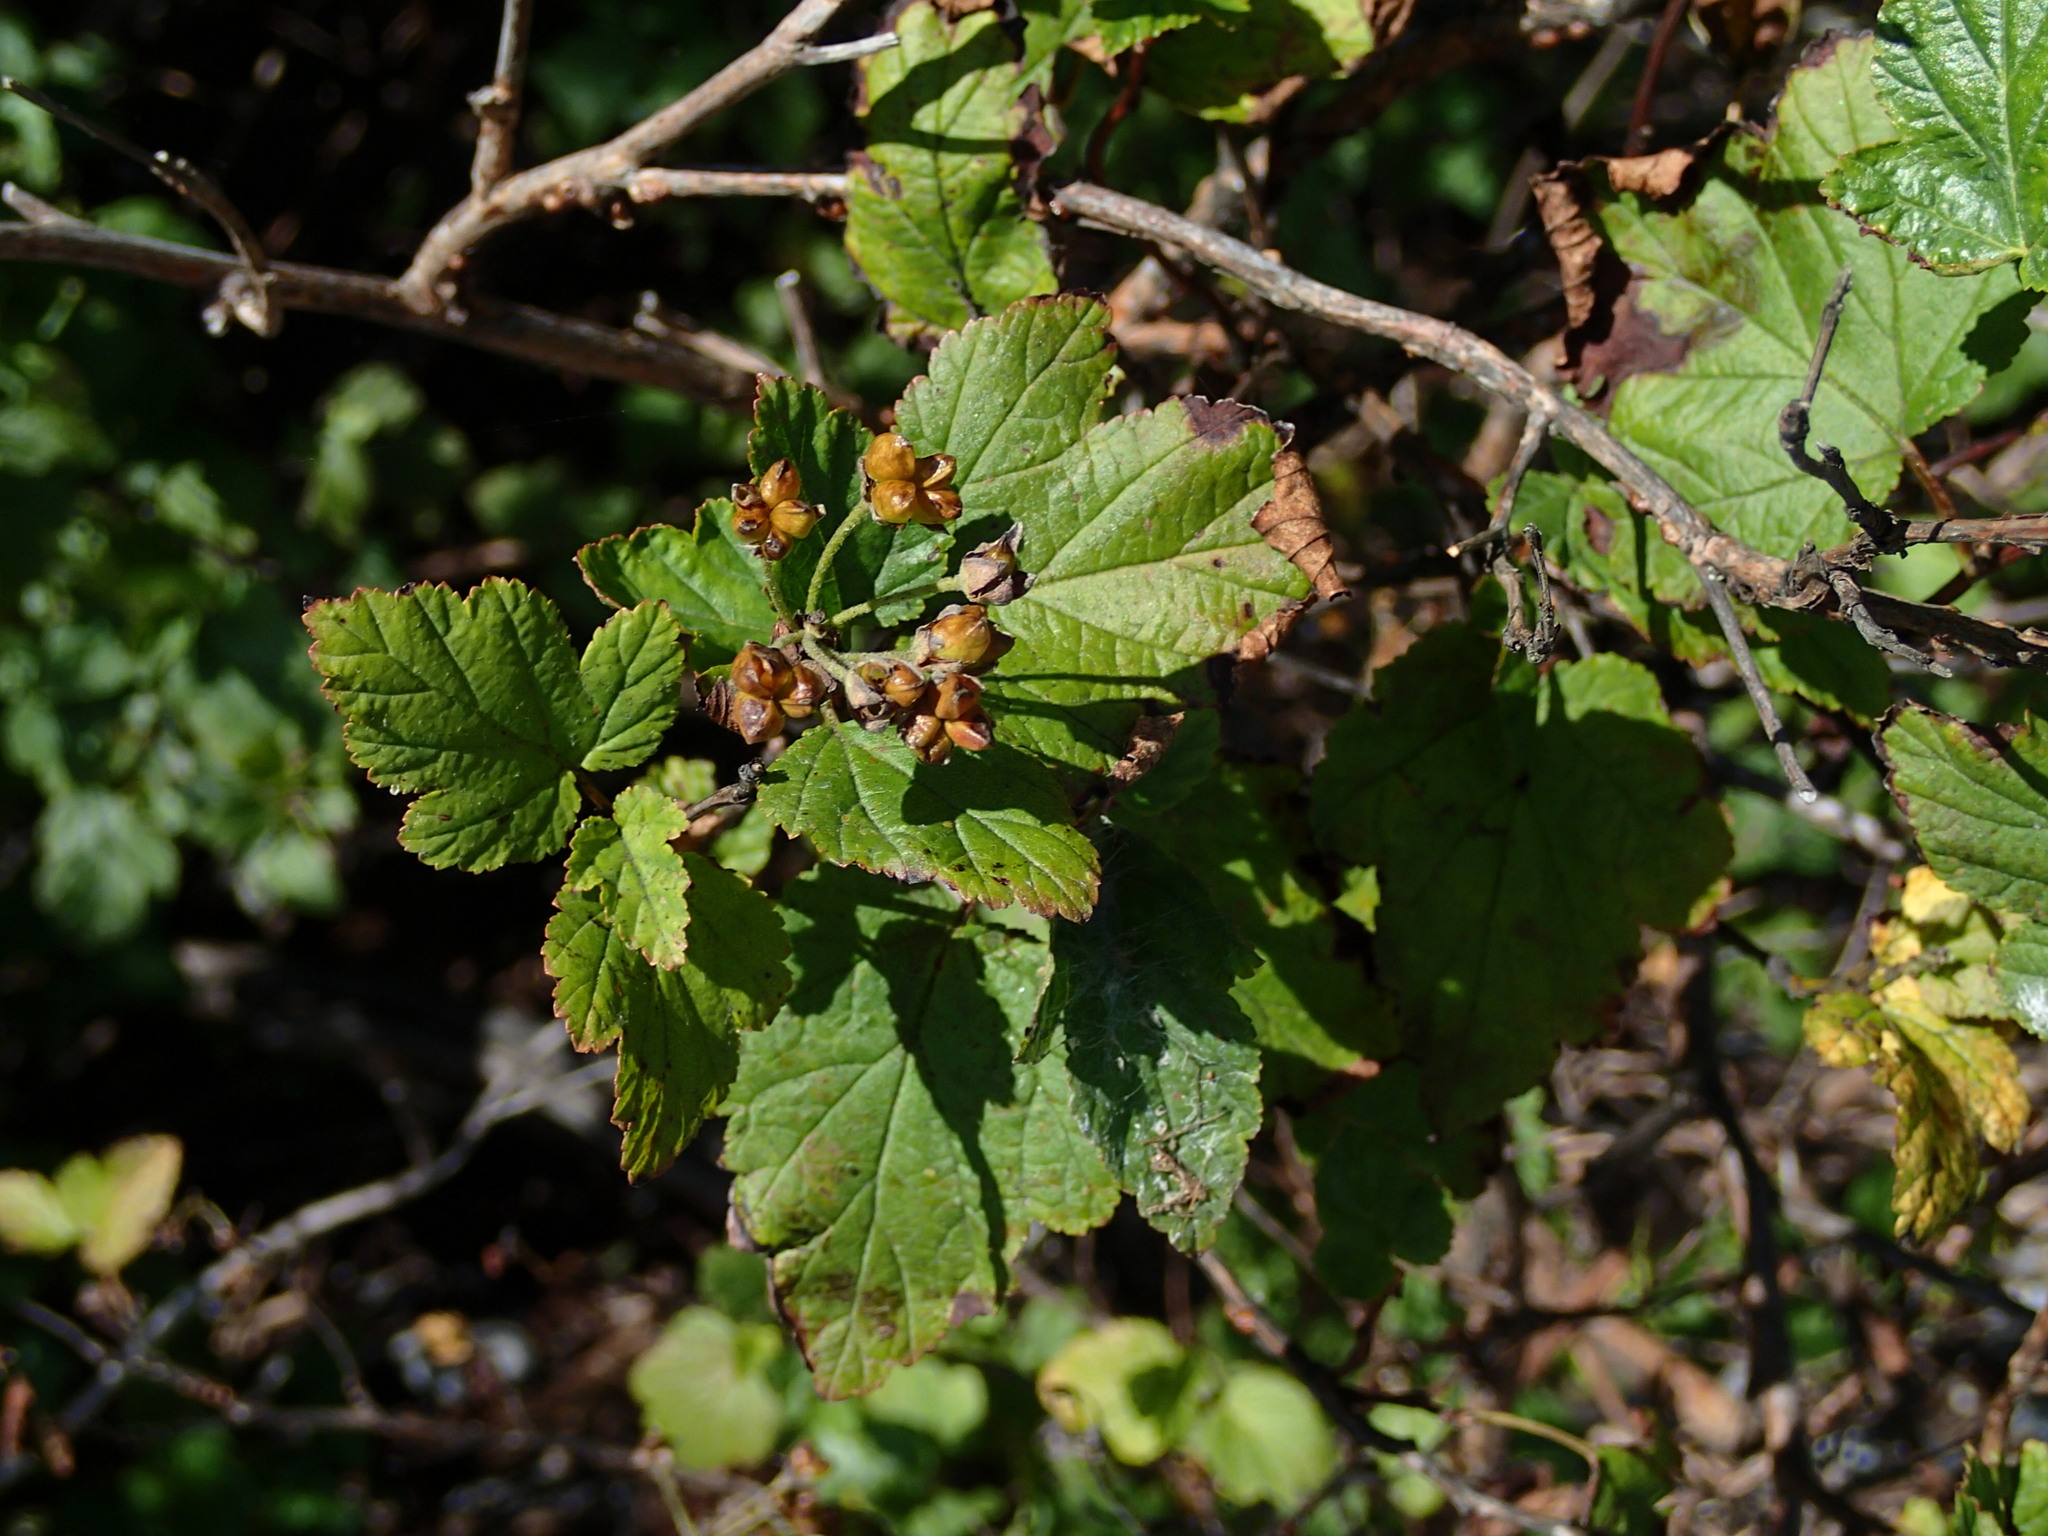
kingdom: Plantae
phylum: Tracheophyta
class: Magnoliopsida
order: Rosales
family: Rosaceae
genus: Physocarpus
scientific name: Physocarpus opulifolius
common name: Ninebark
